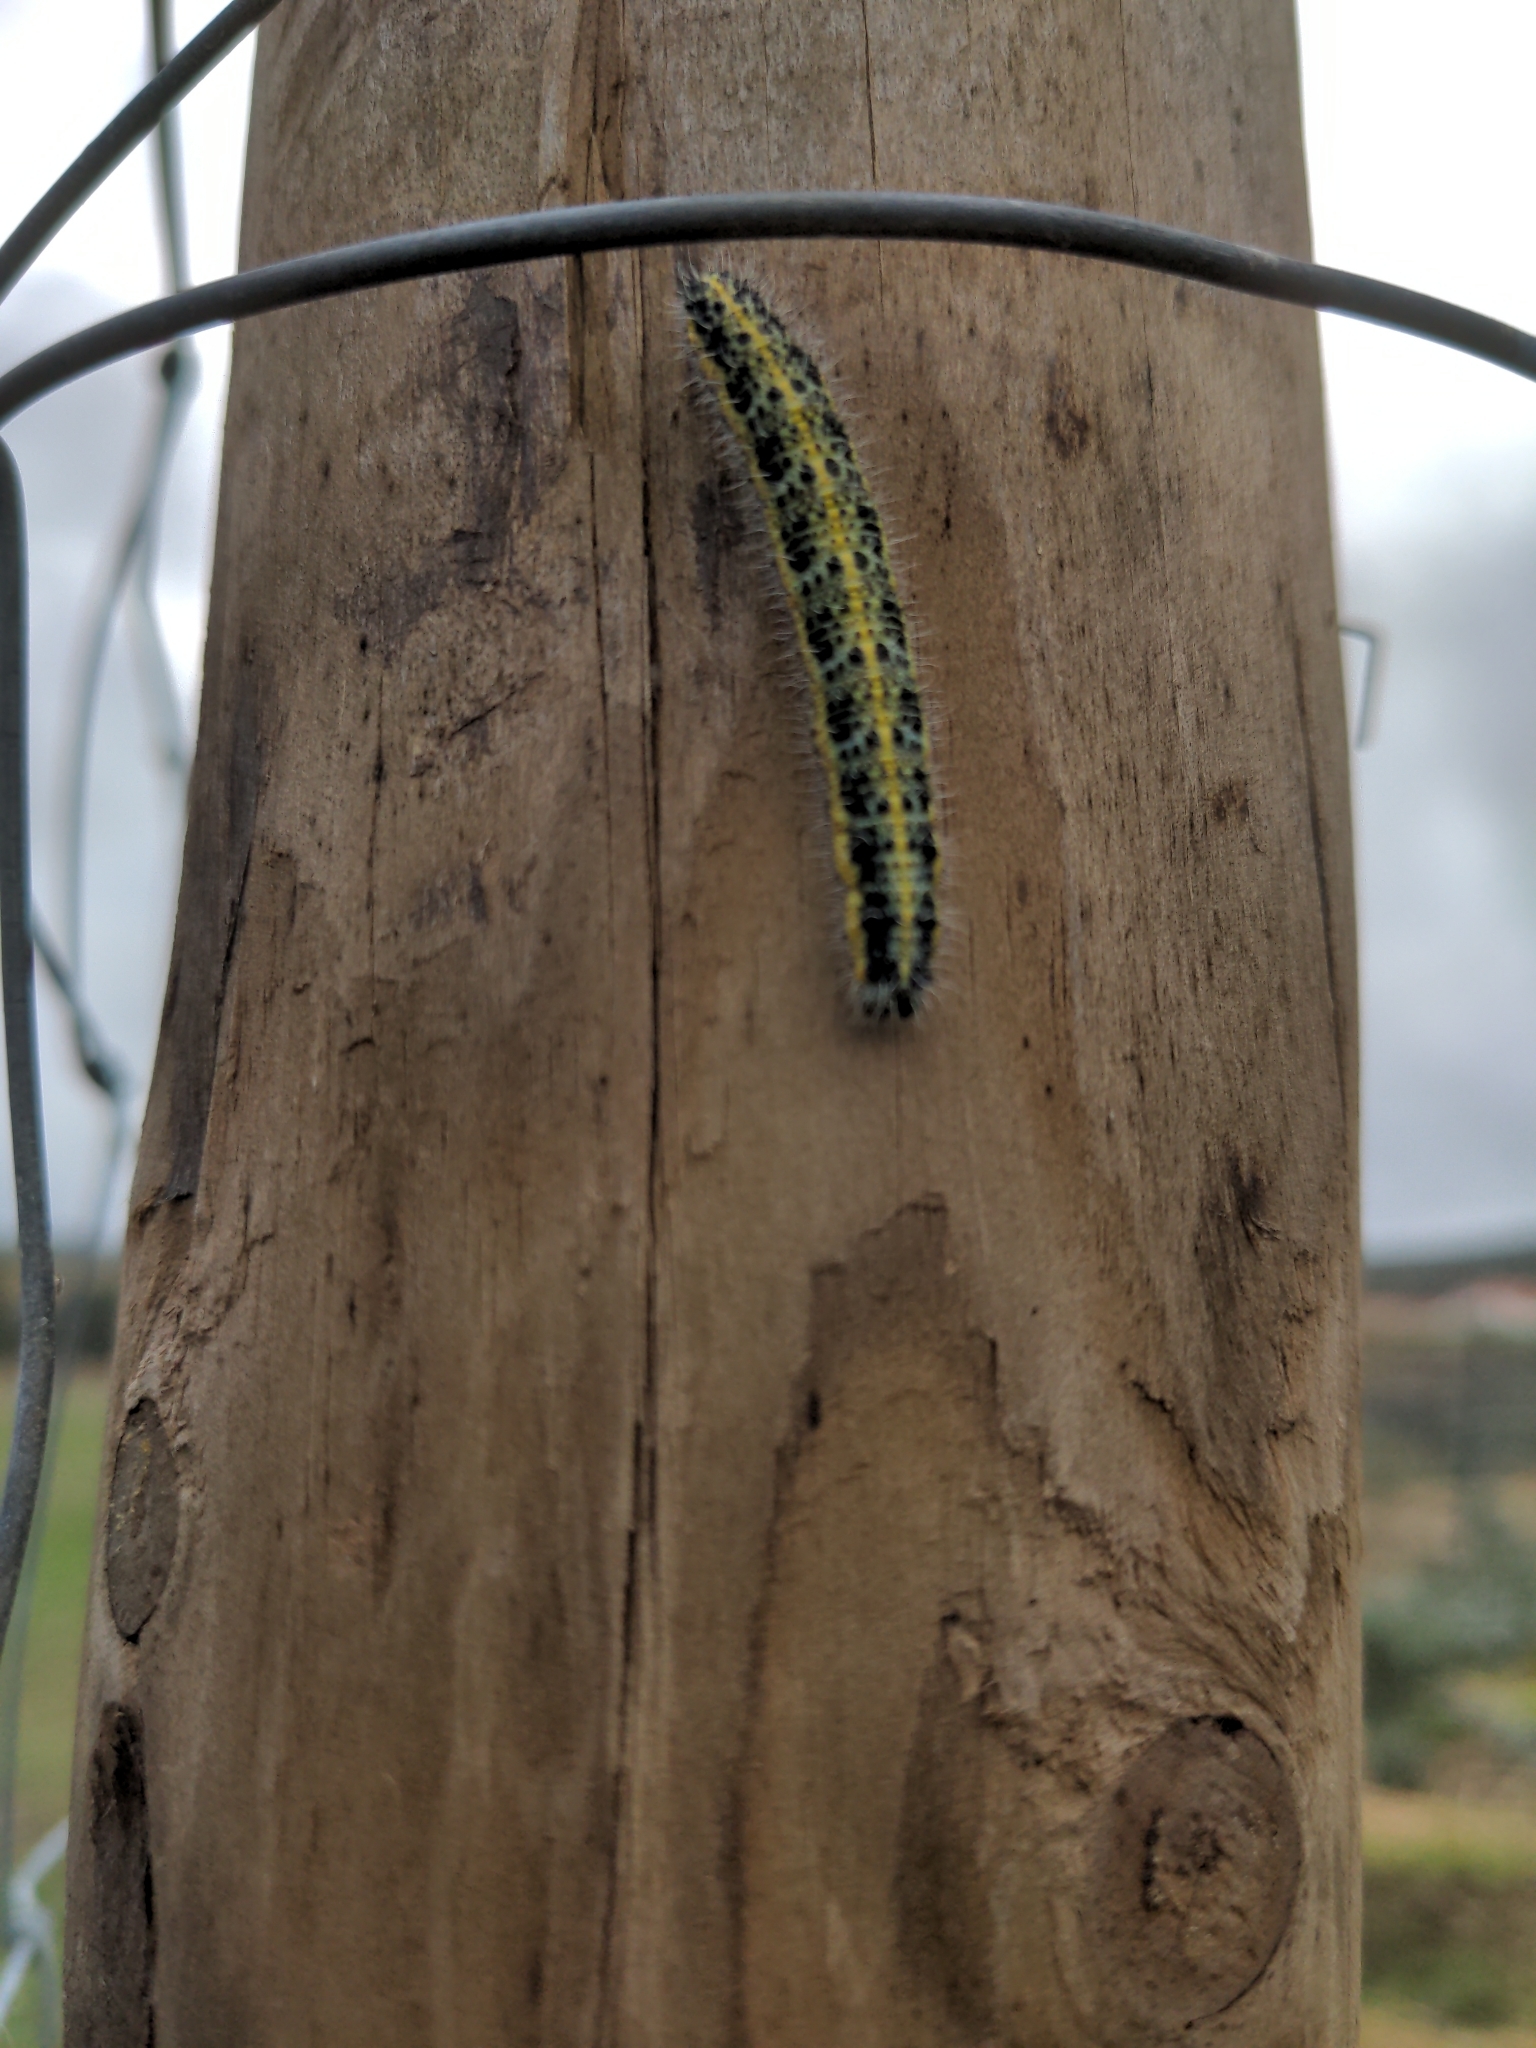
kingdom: Animalia
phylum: Arthropoda
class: Insecta
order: Lepidoptera
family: Pieridae
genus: Pieris
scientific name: Pieris brassicae
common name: Large white
